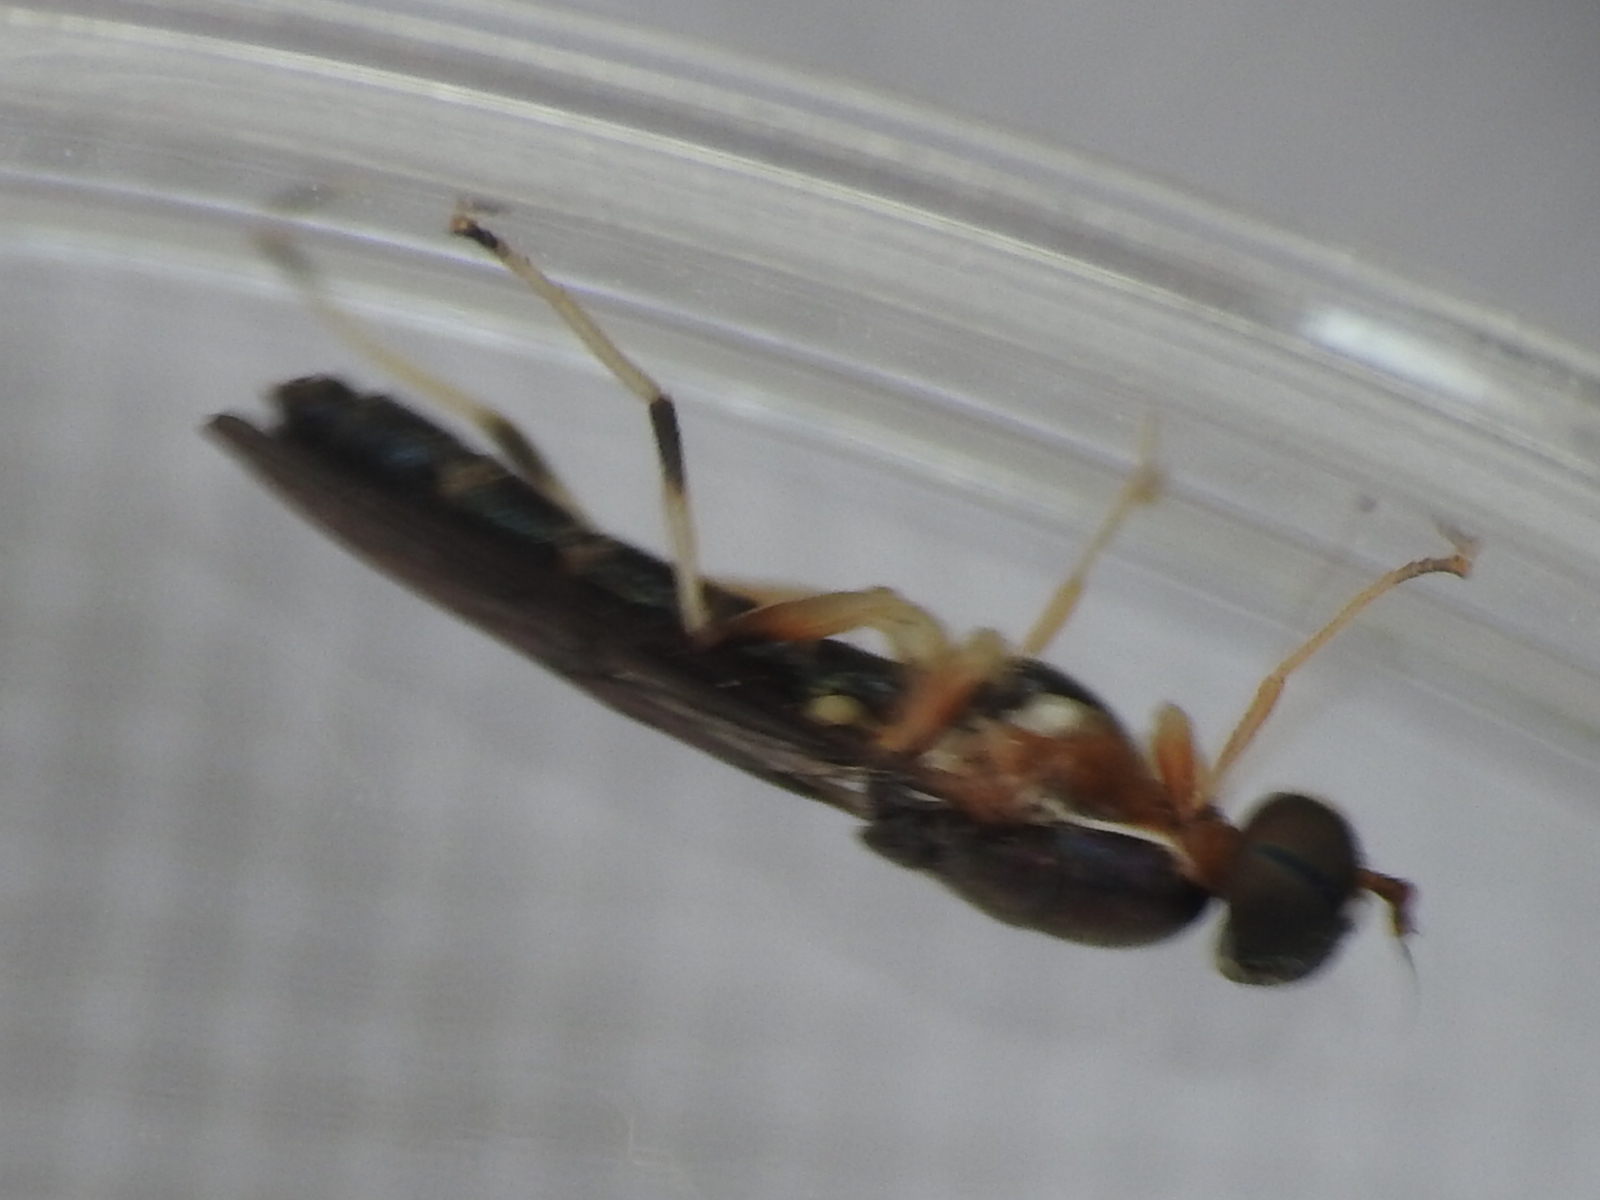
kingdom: Animalia
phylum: Arthropoda
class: Insecta
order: Diptera
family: Stratiomyidae
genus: Merosargus
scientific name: Merosargus caeruleifrons
